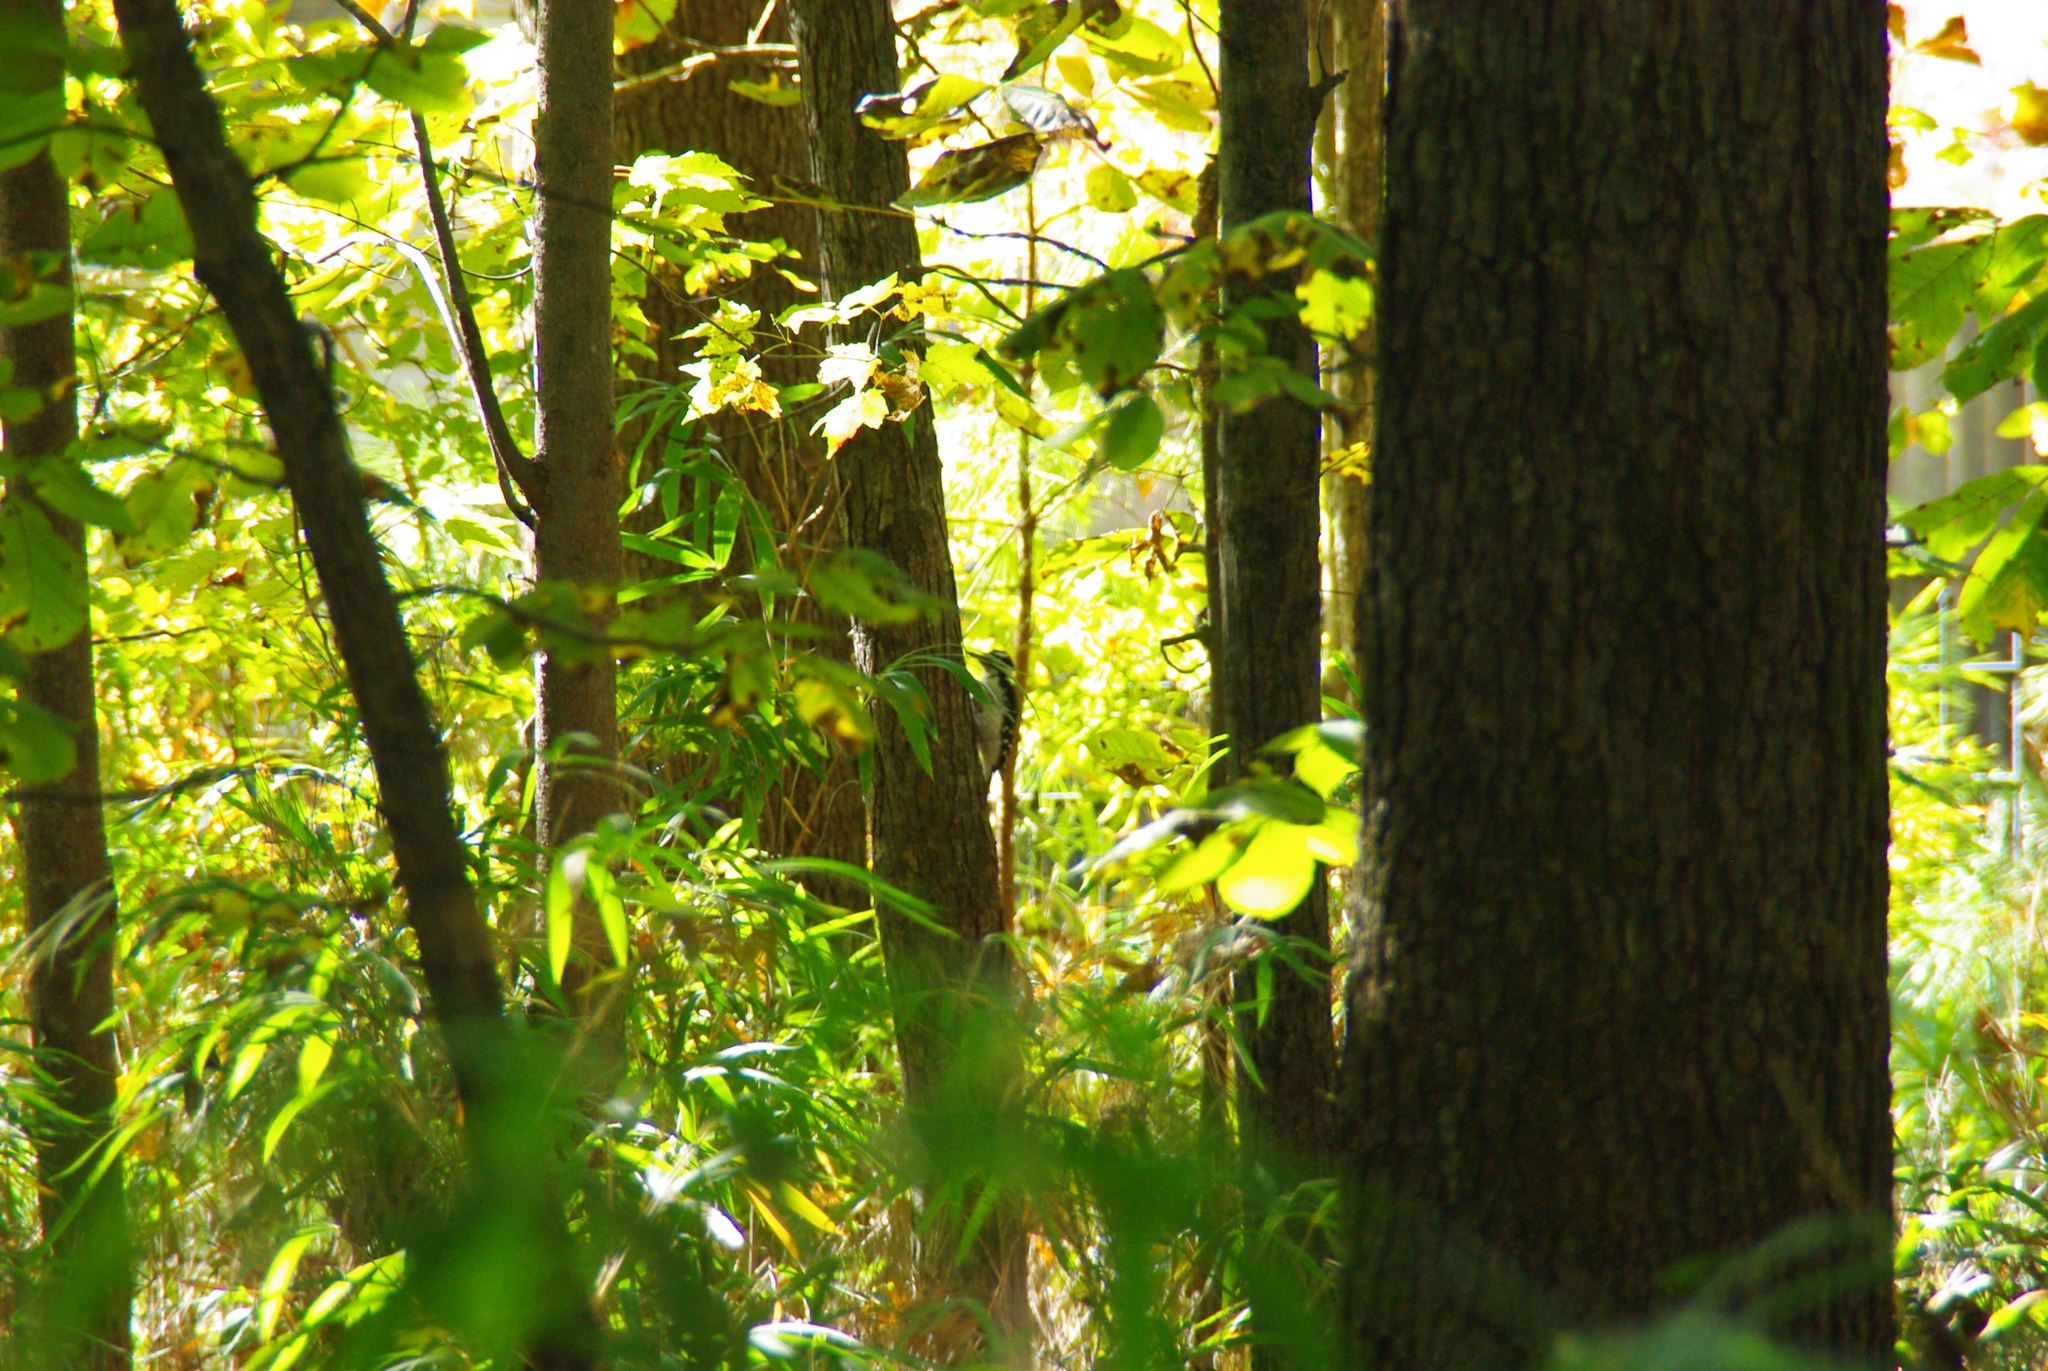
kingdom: Animalia
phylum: Chordata
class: Aves
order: Piciformes
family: Picidae
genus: Leuconotopicus
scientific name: Leuconotopicus villosus
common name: Hairy woodpecker
